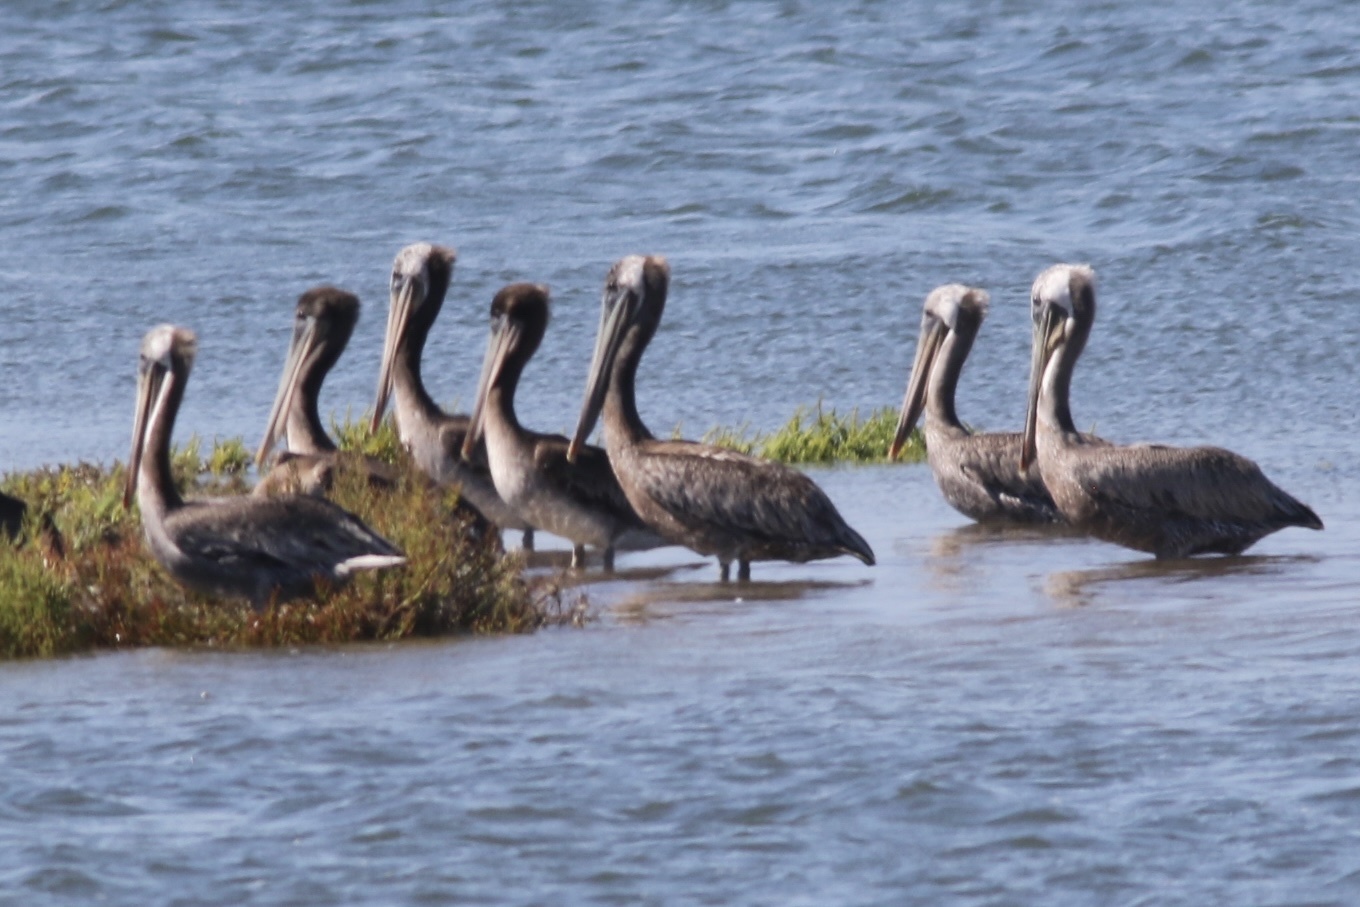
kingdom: Animalia
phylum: Chordata
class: Aves
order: Pelecaniformes
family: Pelecanidae
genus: Pelecanus
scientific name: Pelecanus occidentalis
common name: Brown pelican
